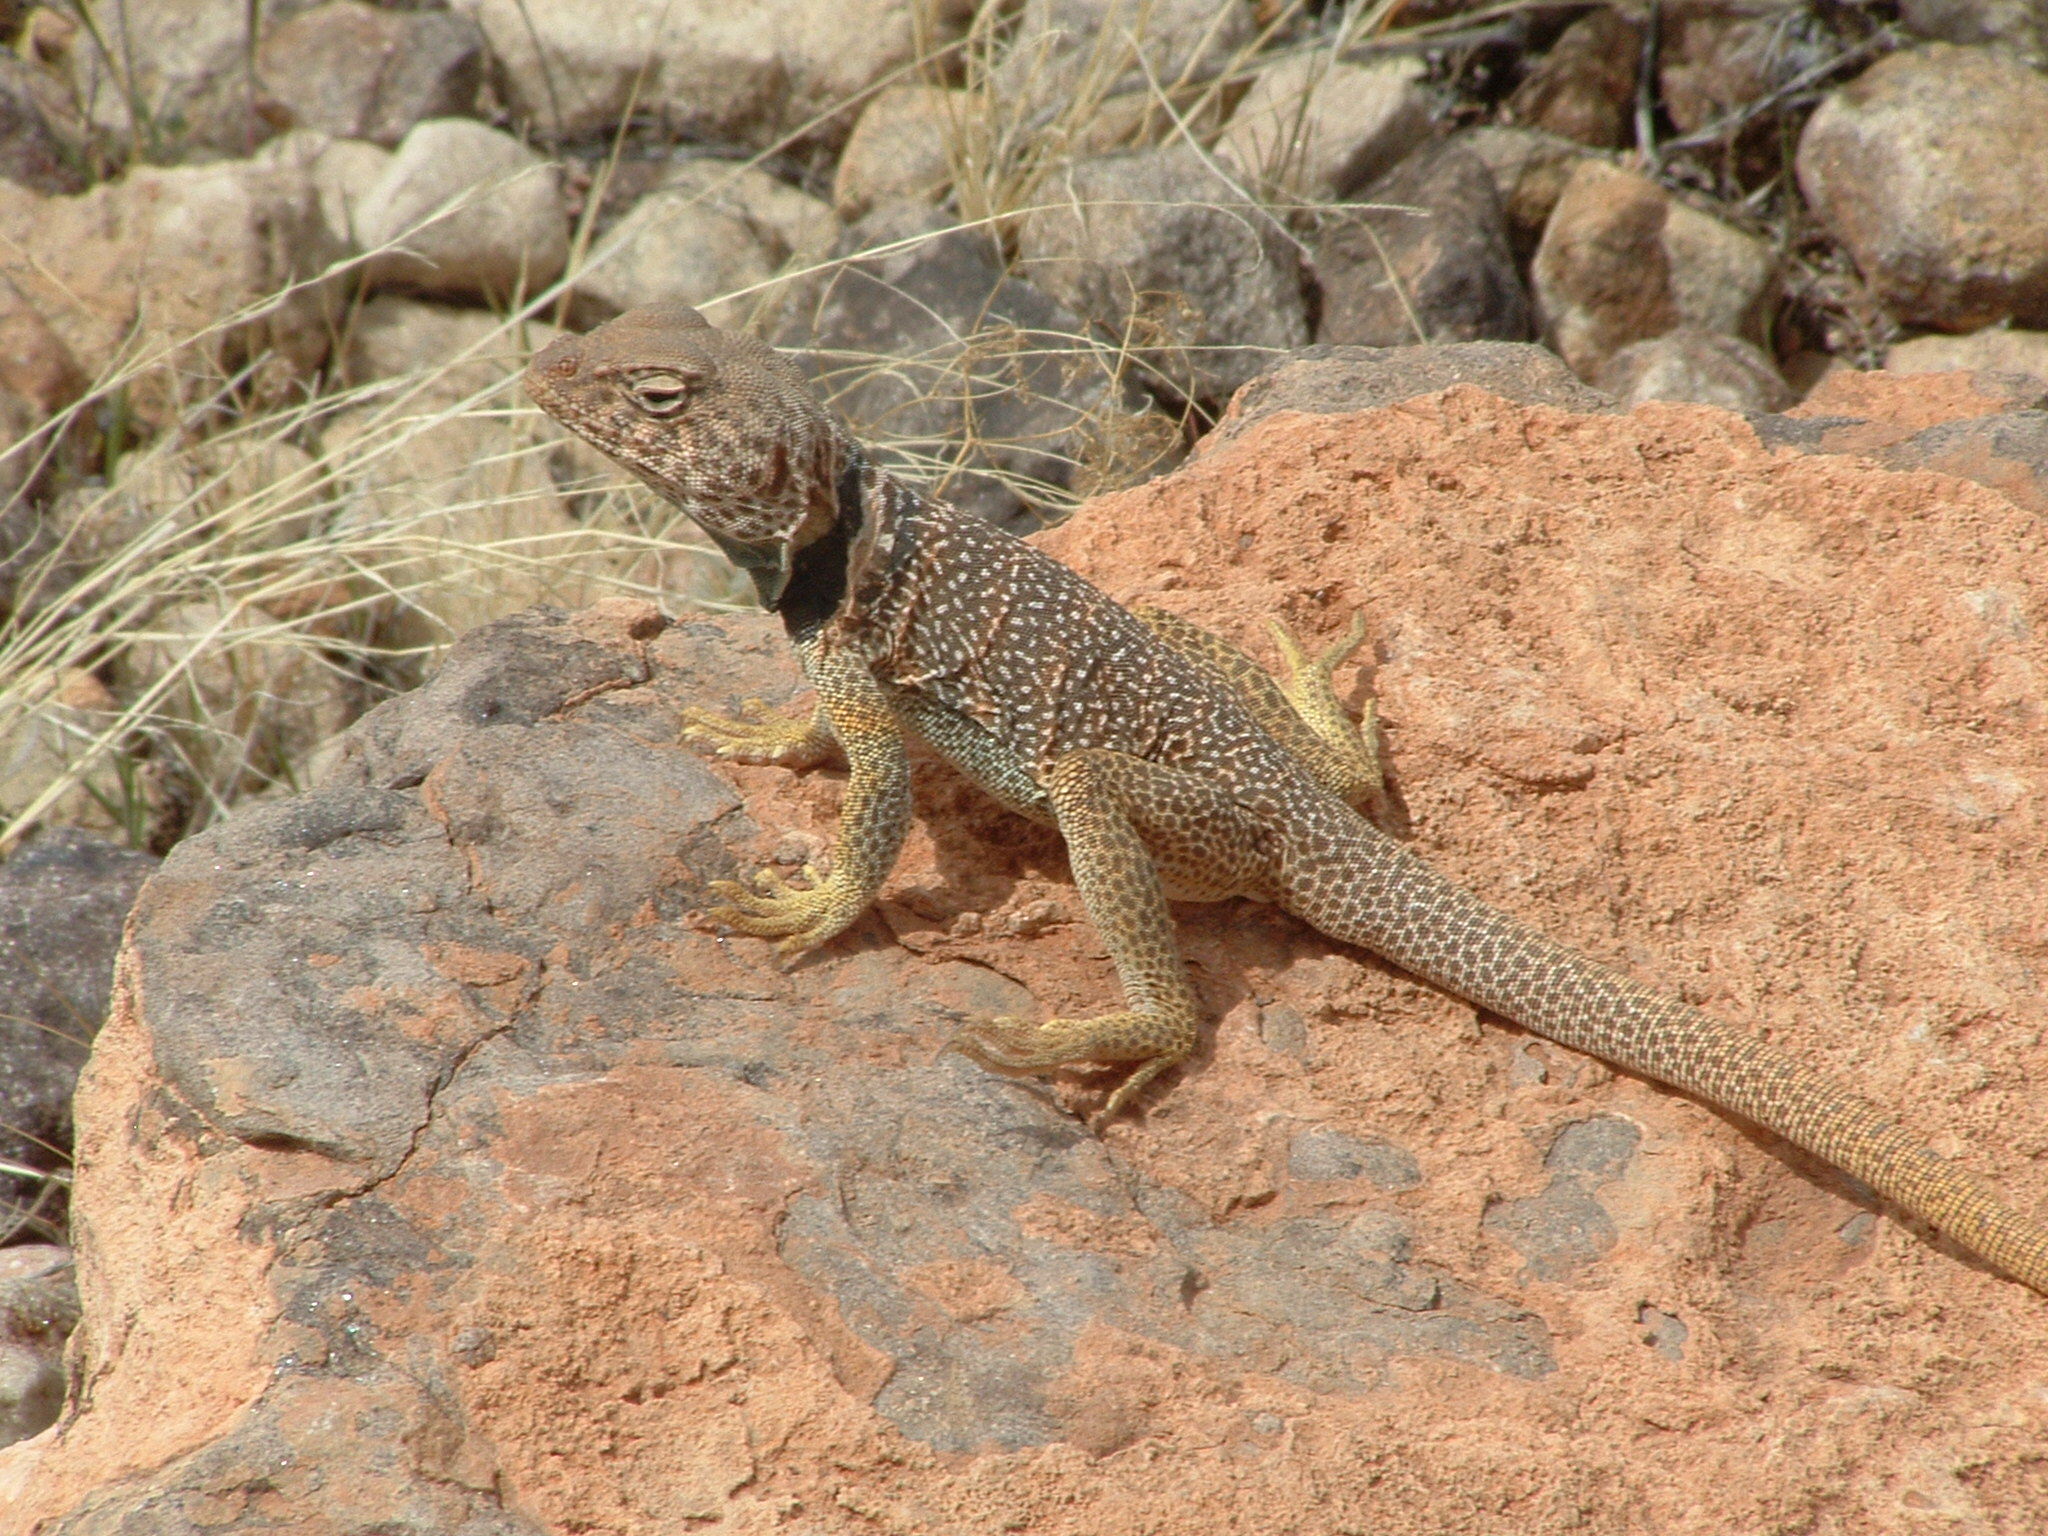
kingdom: Animalia
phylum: Chordata
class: Squamata
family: Crotaphytidae
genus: Crotaphytus
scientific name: Crotaphytus bicinctores
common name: Mojave black-collared lizard
